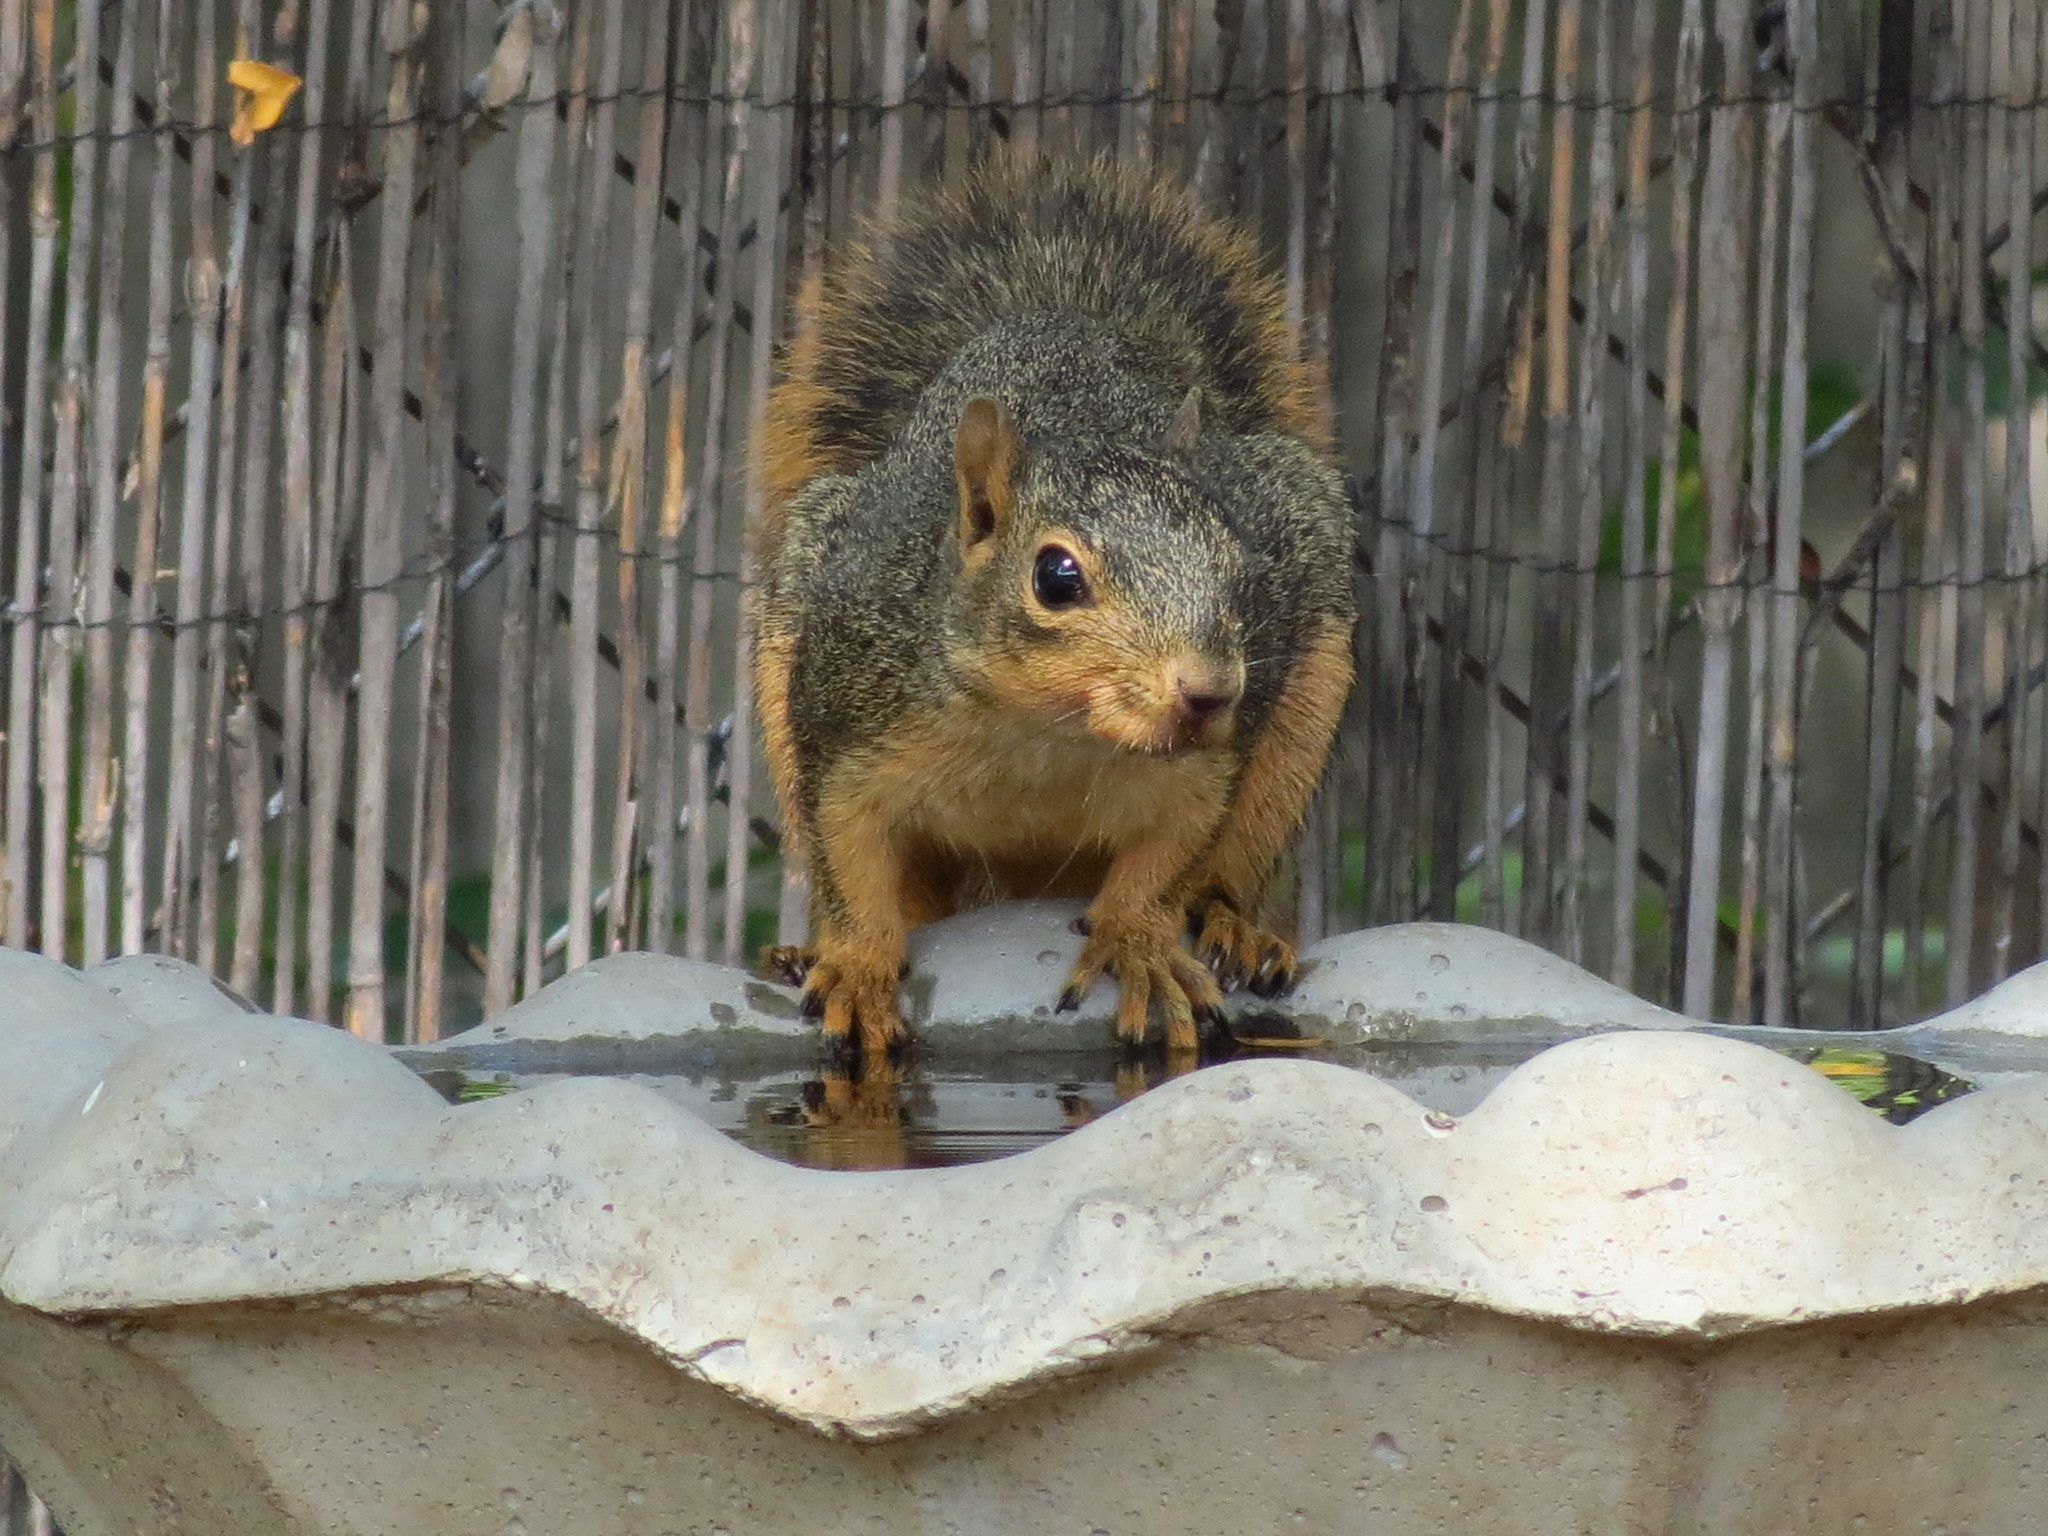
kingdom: Animalia
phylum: Chordata
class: Mammalia
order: Rodentia
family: Sciuridae
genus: Sciurus
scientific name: Sciurus niger
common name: Fox squirrel
